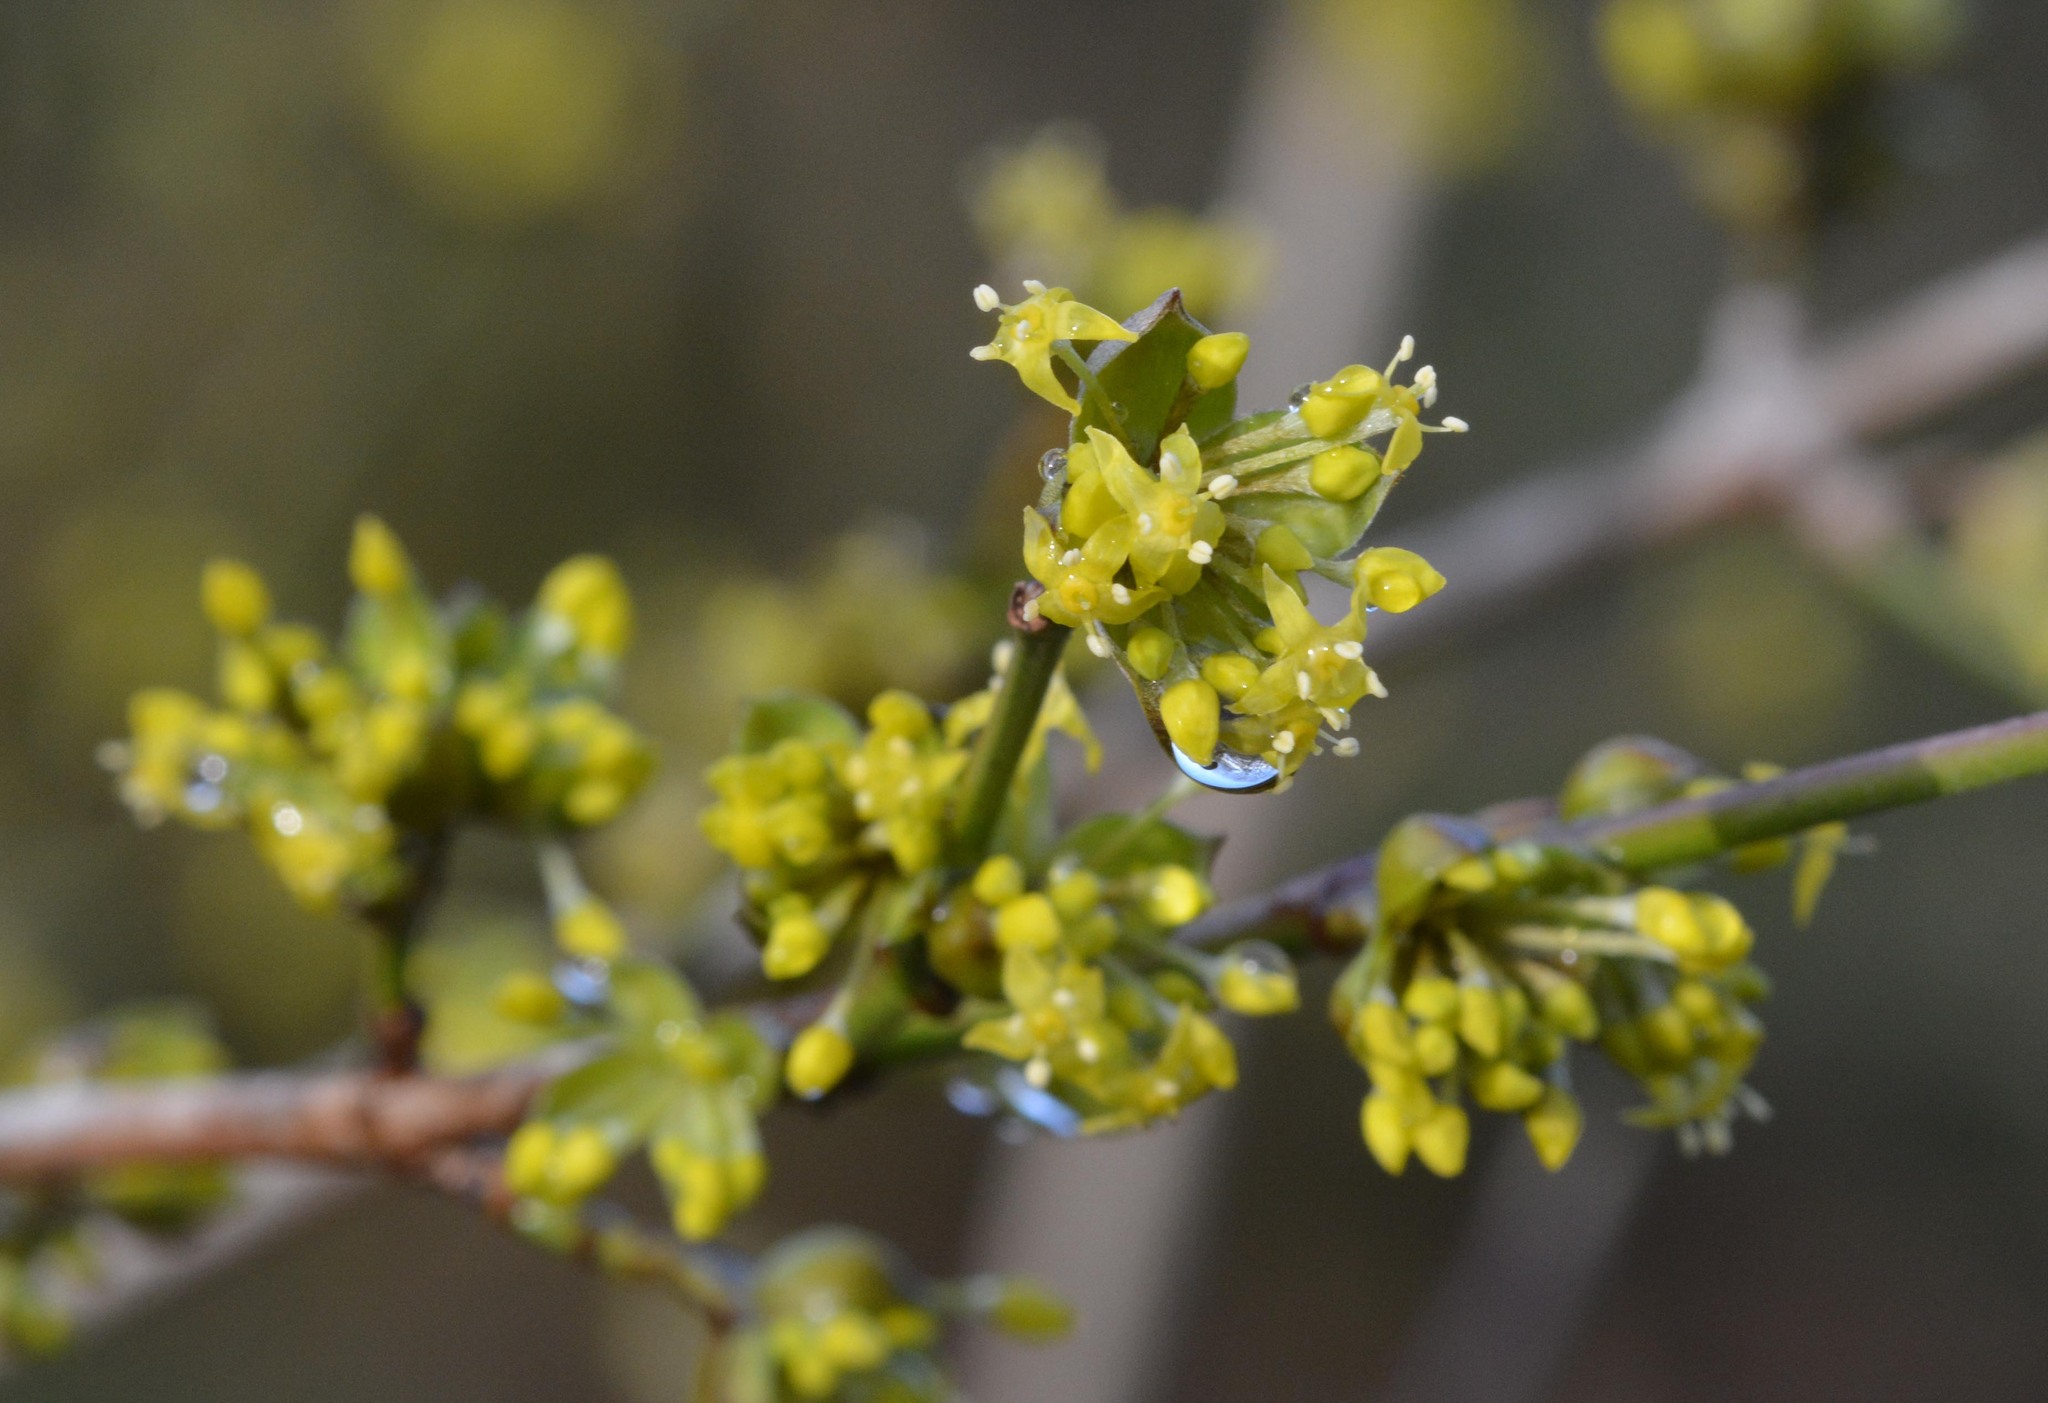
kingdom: Plantae
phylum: Tracheophyta
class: Magnoliopsida
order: Cornales
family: Cornaceae
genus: Cornus
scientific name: Cornus mas
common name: Cornelian-cherry
